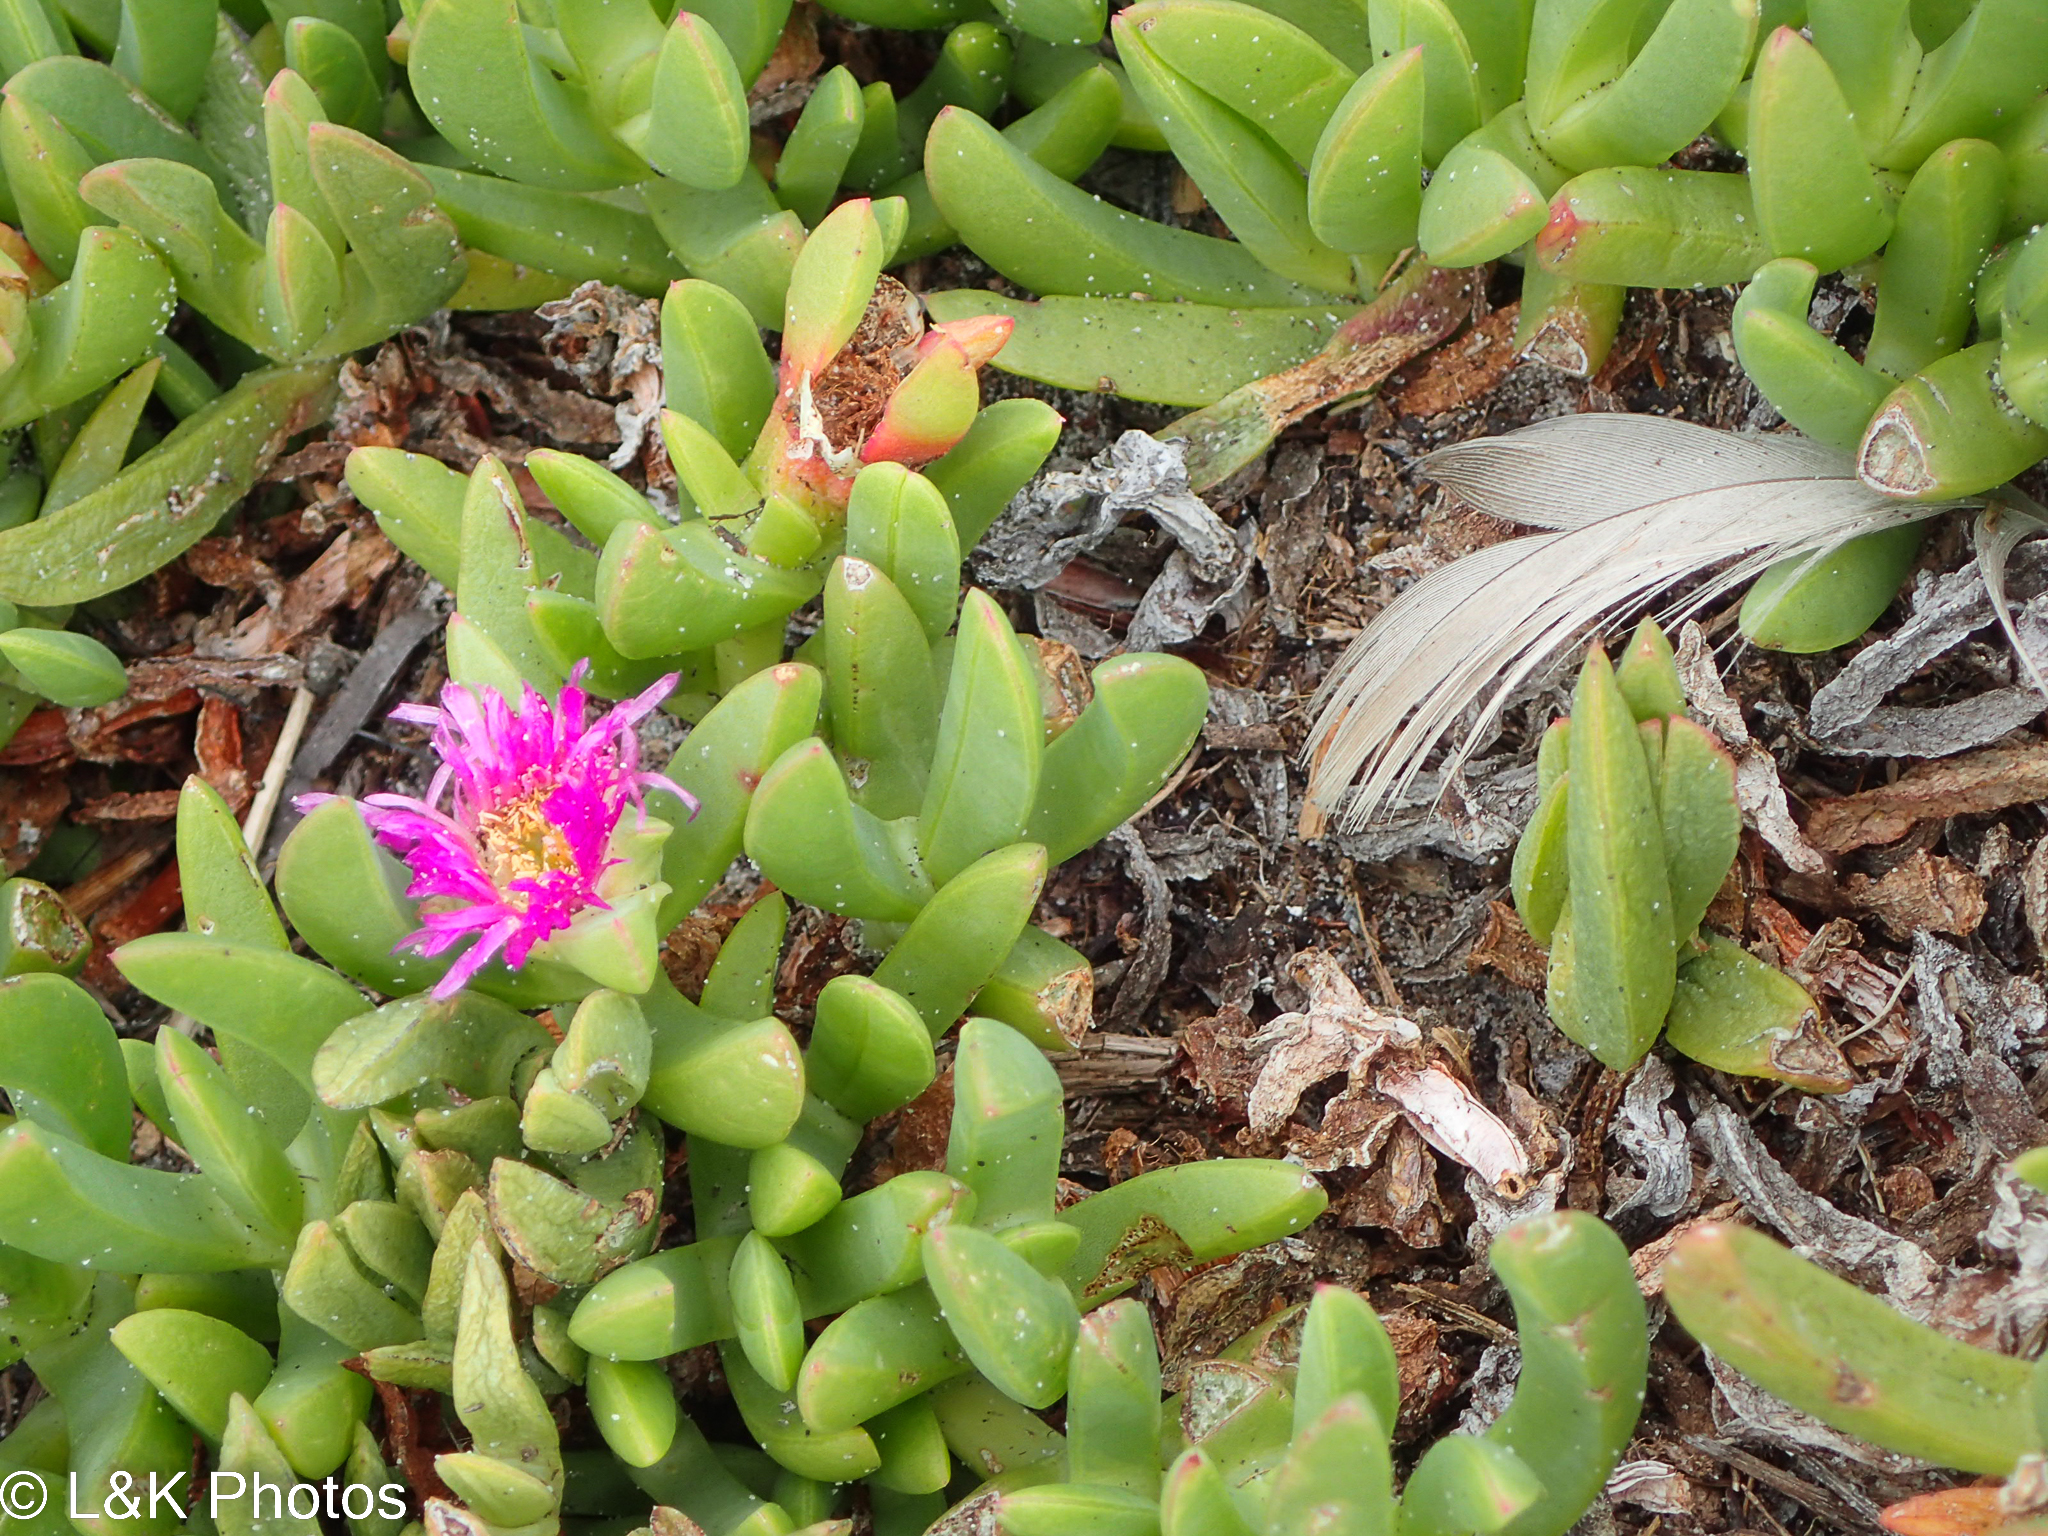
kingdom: Plantae
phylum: Tracheophyta
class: Magnoliopsida
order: Caryophyllales
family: Aizoaceae
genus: Carpobrotus
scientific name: Carpobrotus rossii
